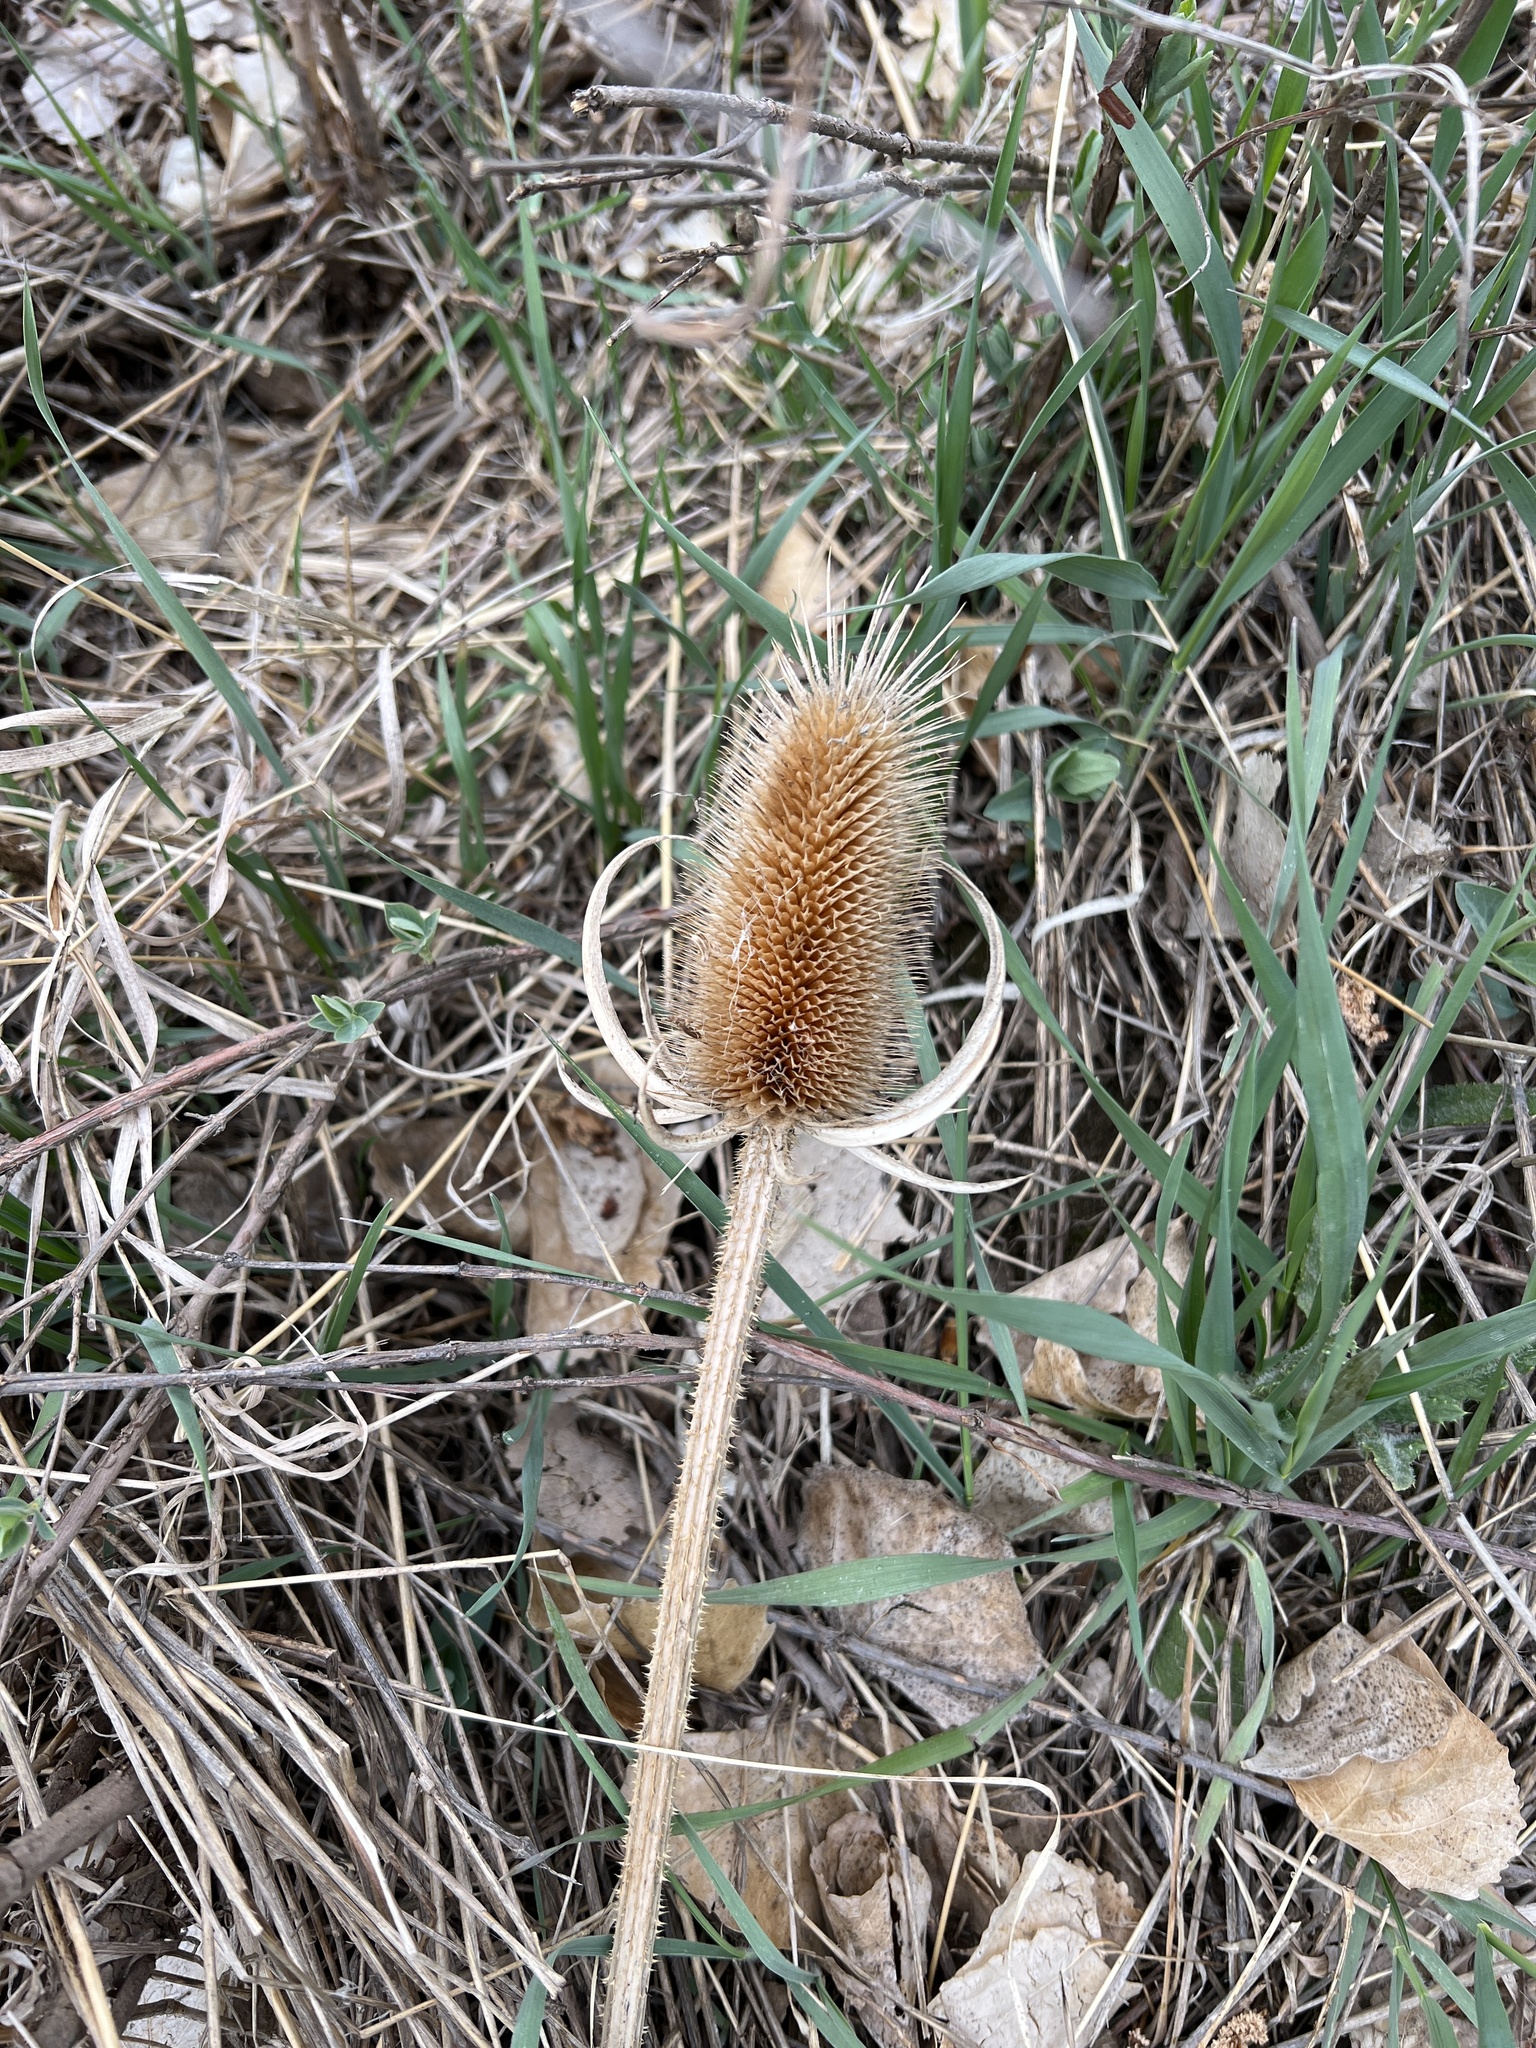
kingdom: Plantae
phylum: Tracheophyta
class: Magnoliopsida
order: Dipsacales
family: Caprifoliaceae
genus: Dipsacus
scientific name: Dipsacus laciniatus
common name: Cut-leaved teasel
